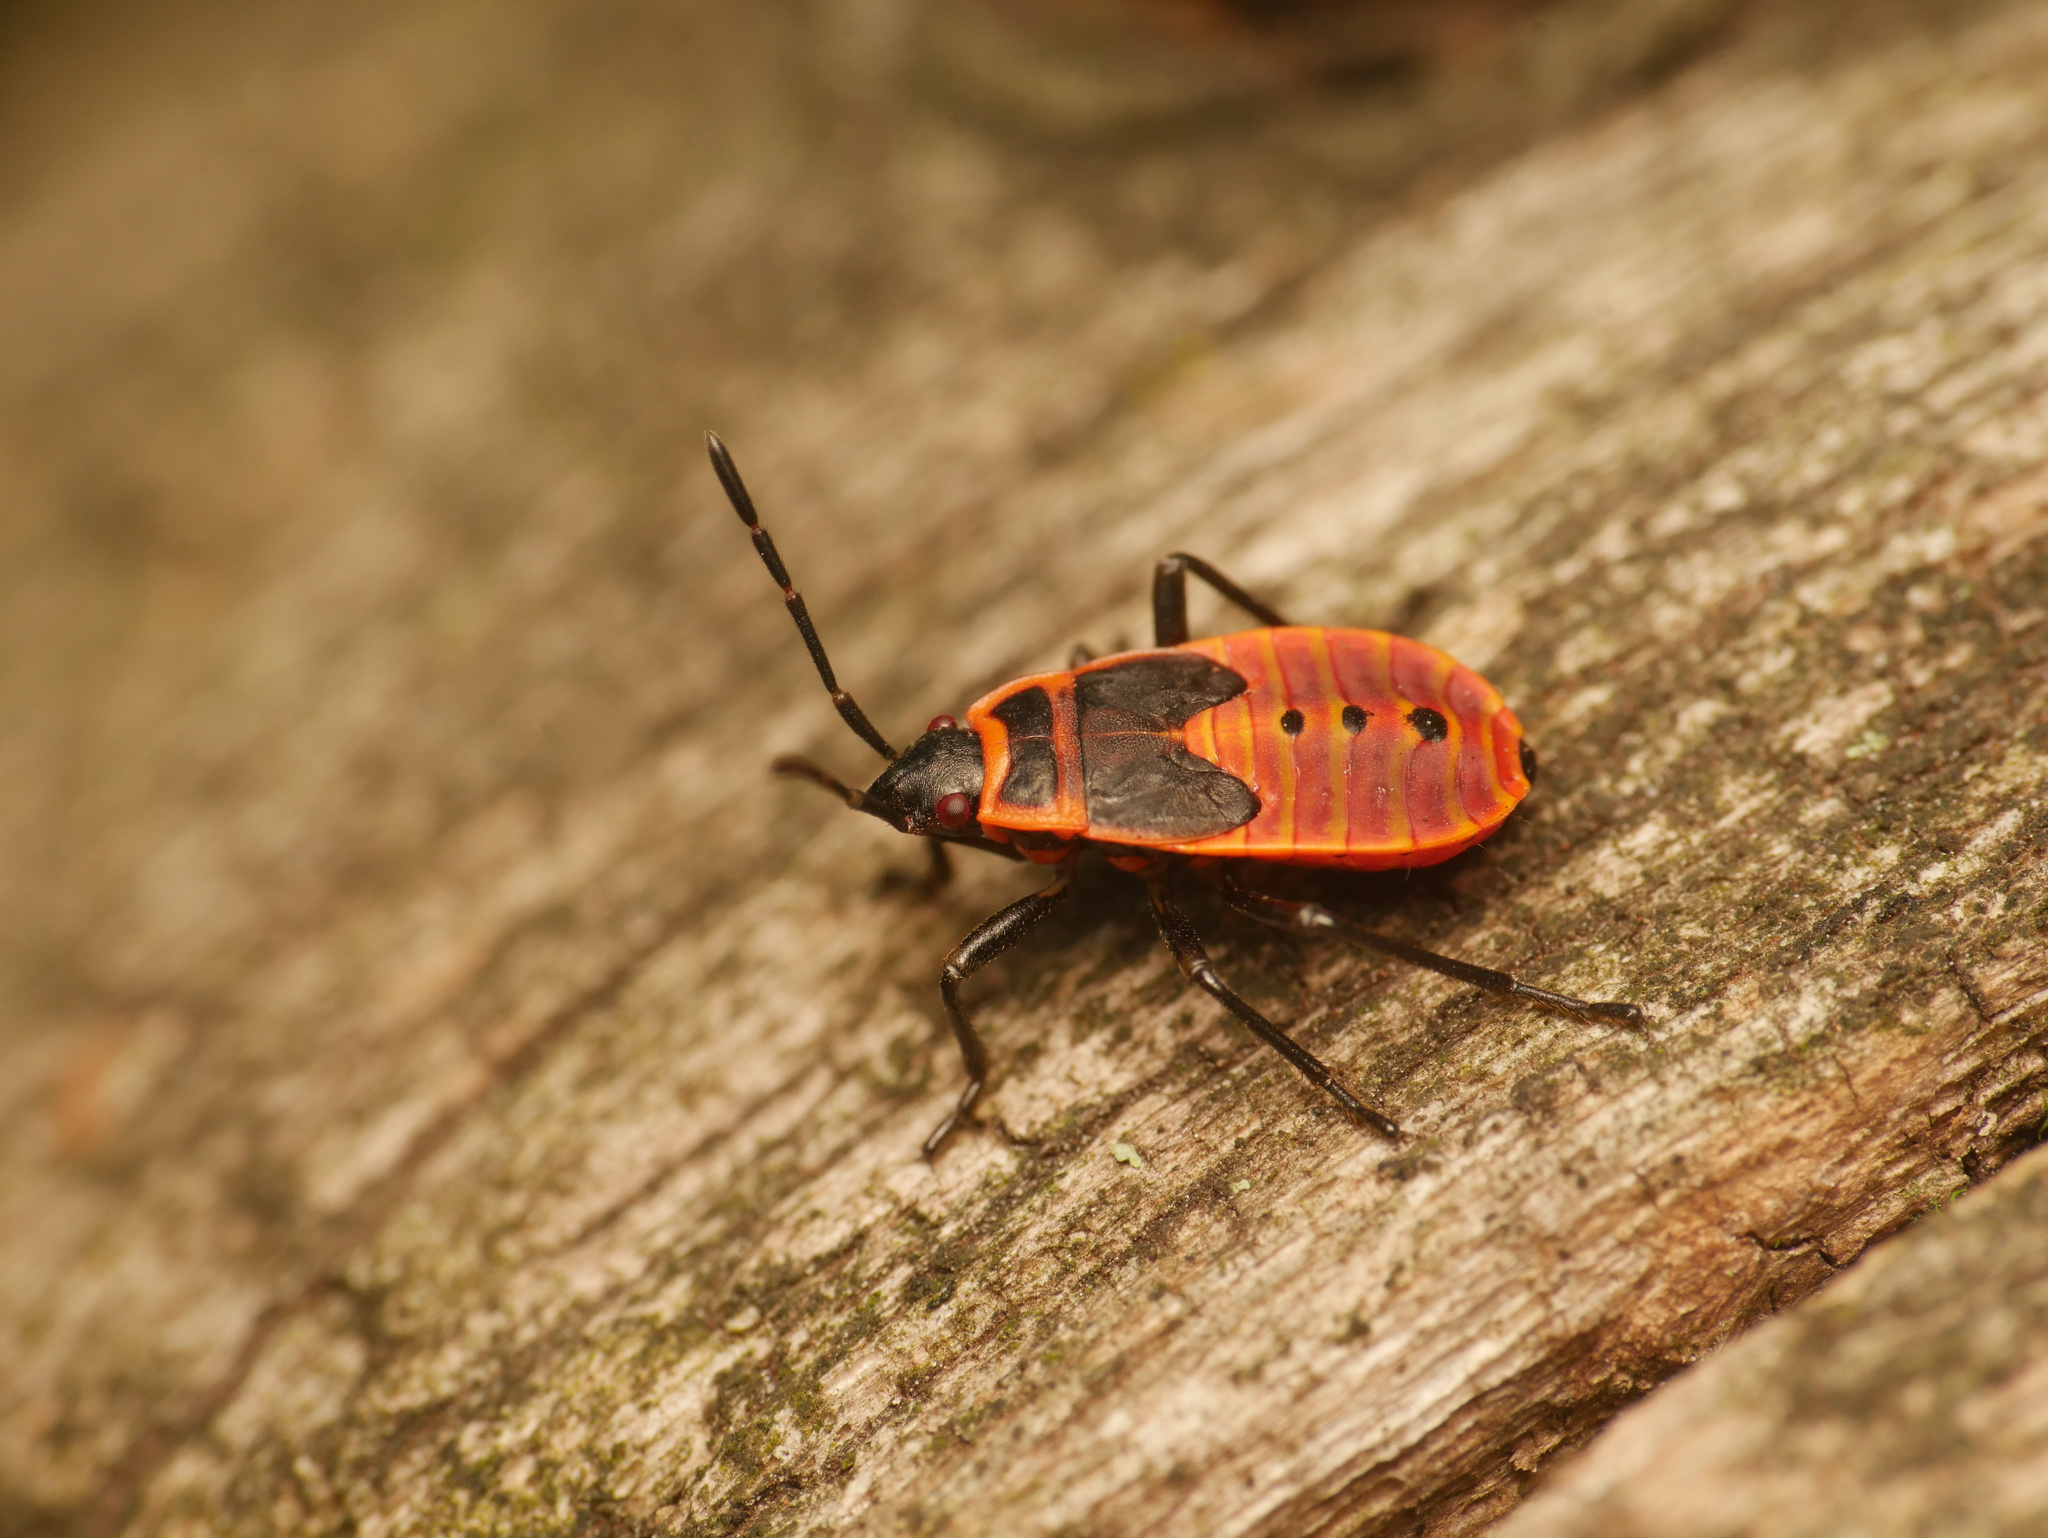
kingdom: Animalia
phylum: Arthropoda
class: Insecta
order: Hemiptera
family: Pyrrhocoridae
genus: Pyrrhocoris
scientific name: Pyrrhocoris apterus
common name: Firebug
